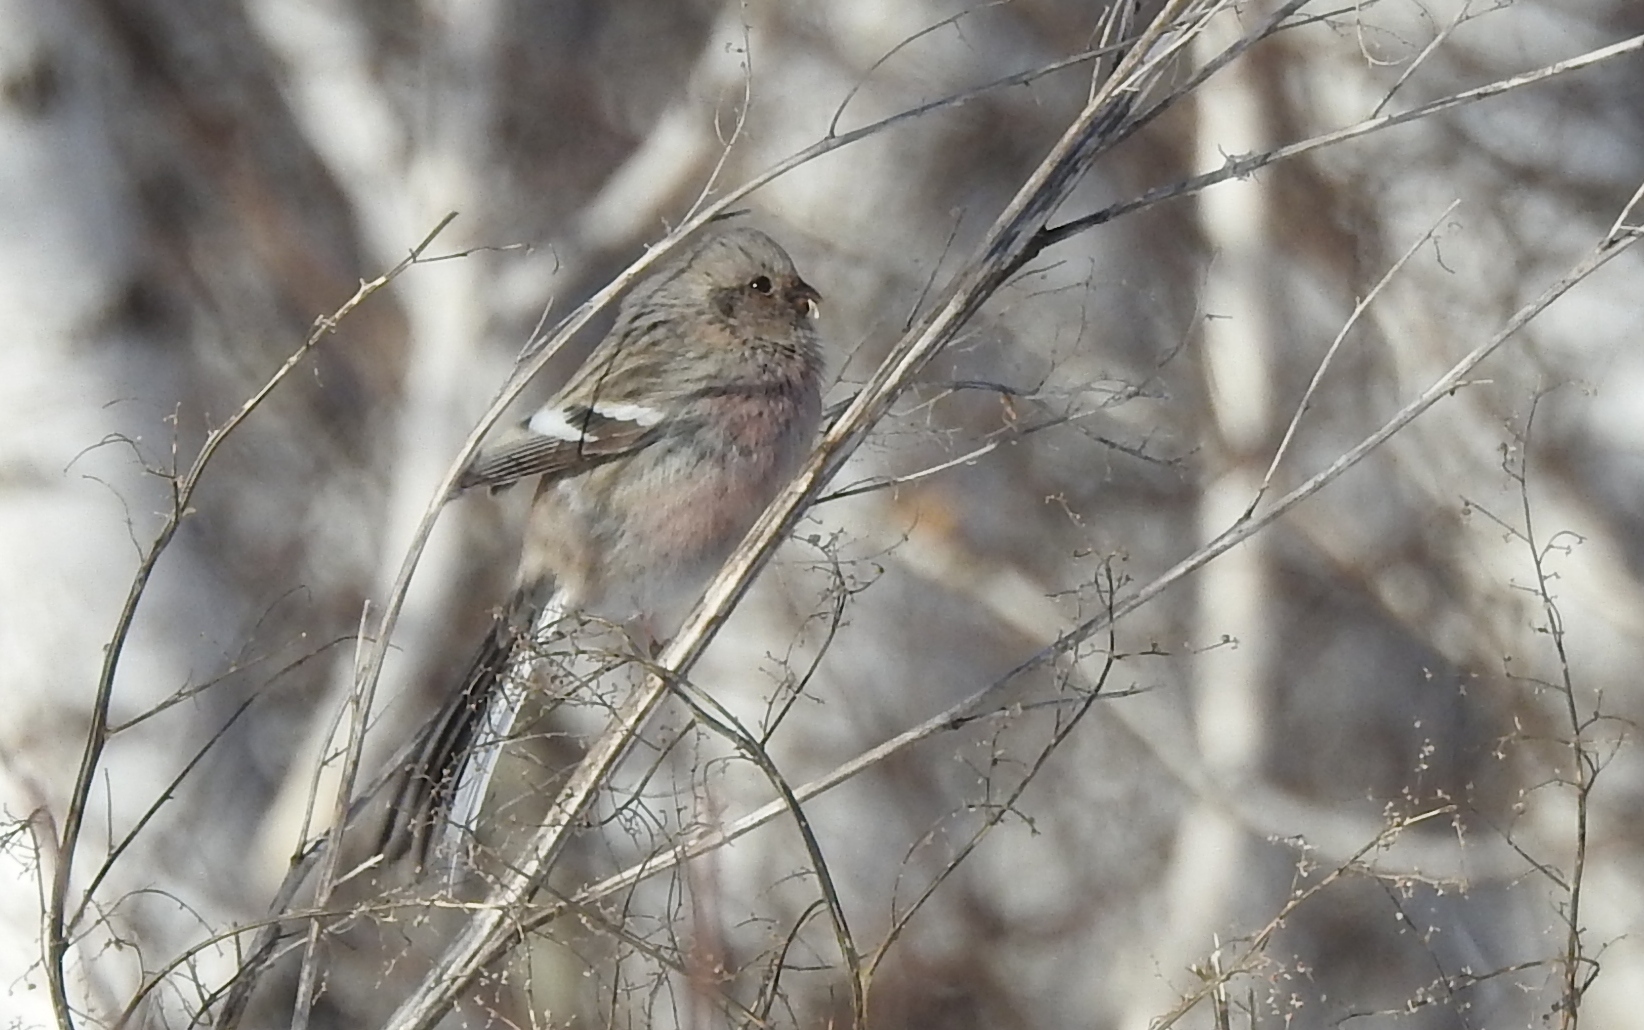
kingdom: Animalia
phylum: Chordata
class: Aves
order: Passeriformes
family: Fringillidae
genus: Carpodacus
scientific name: Carpodacus sibiricus
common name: Long-tailed rosefinch
